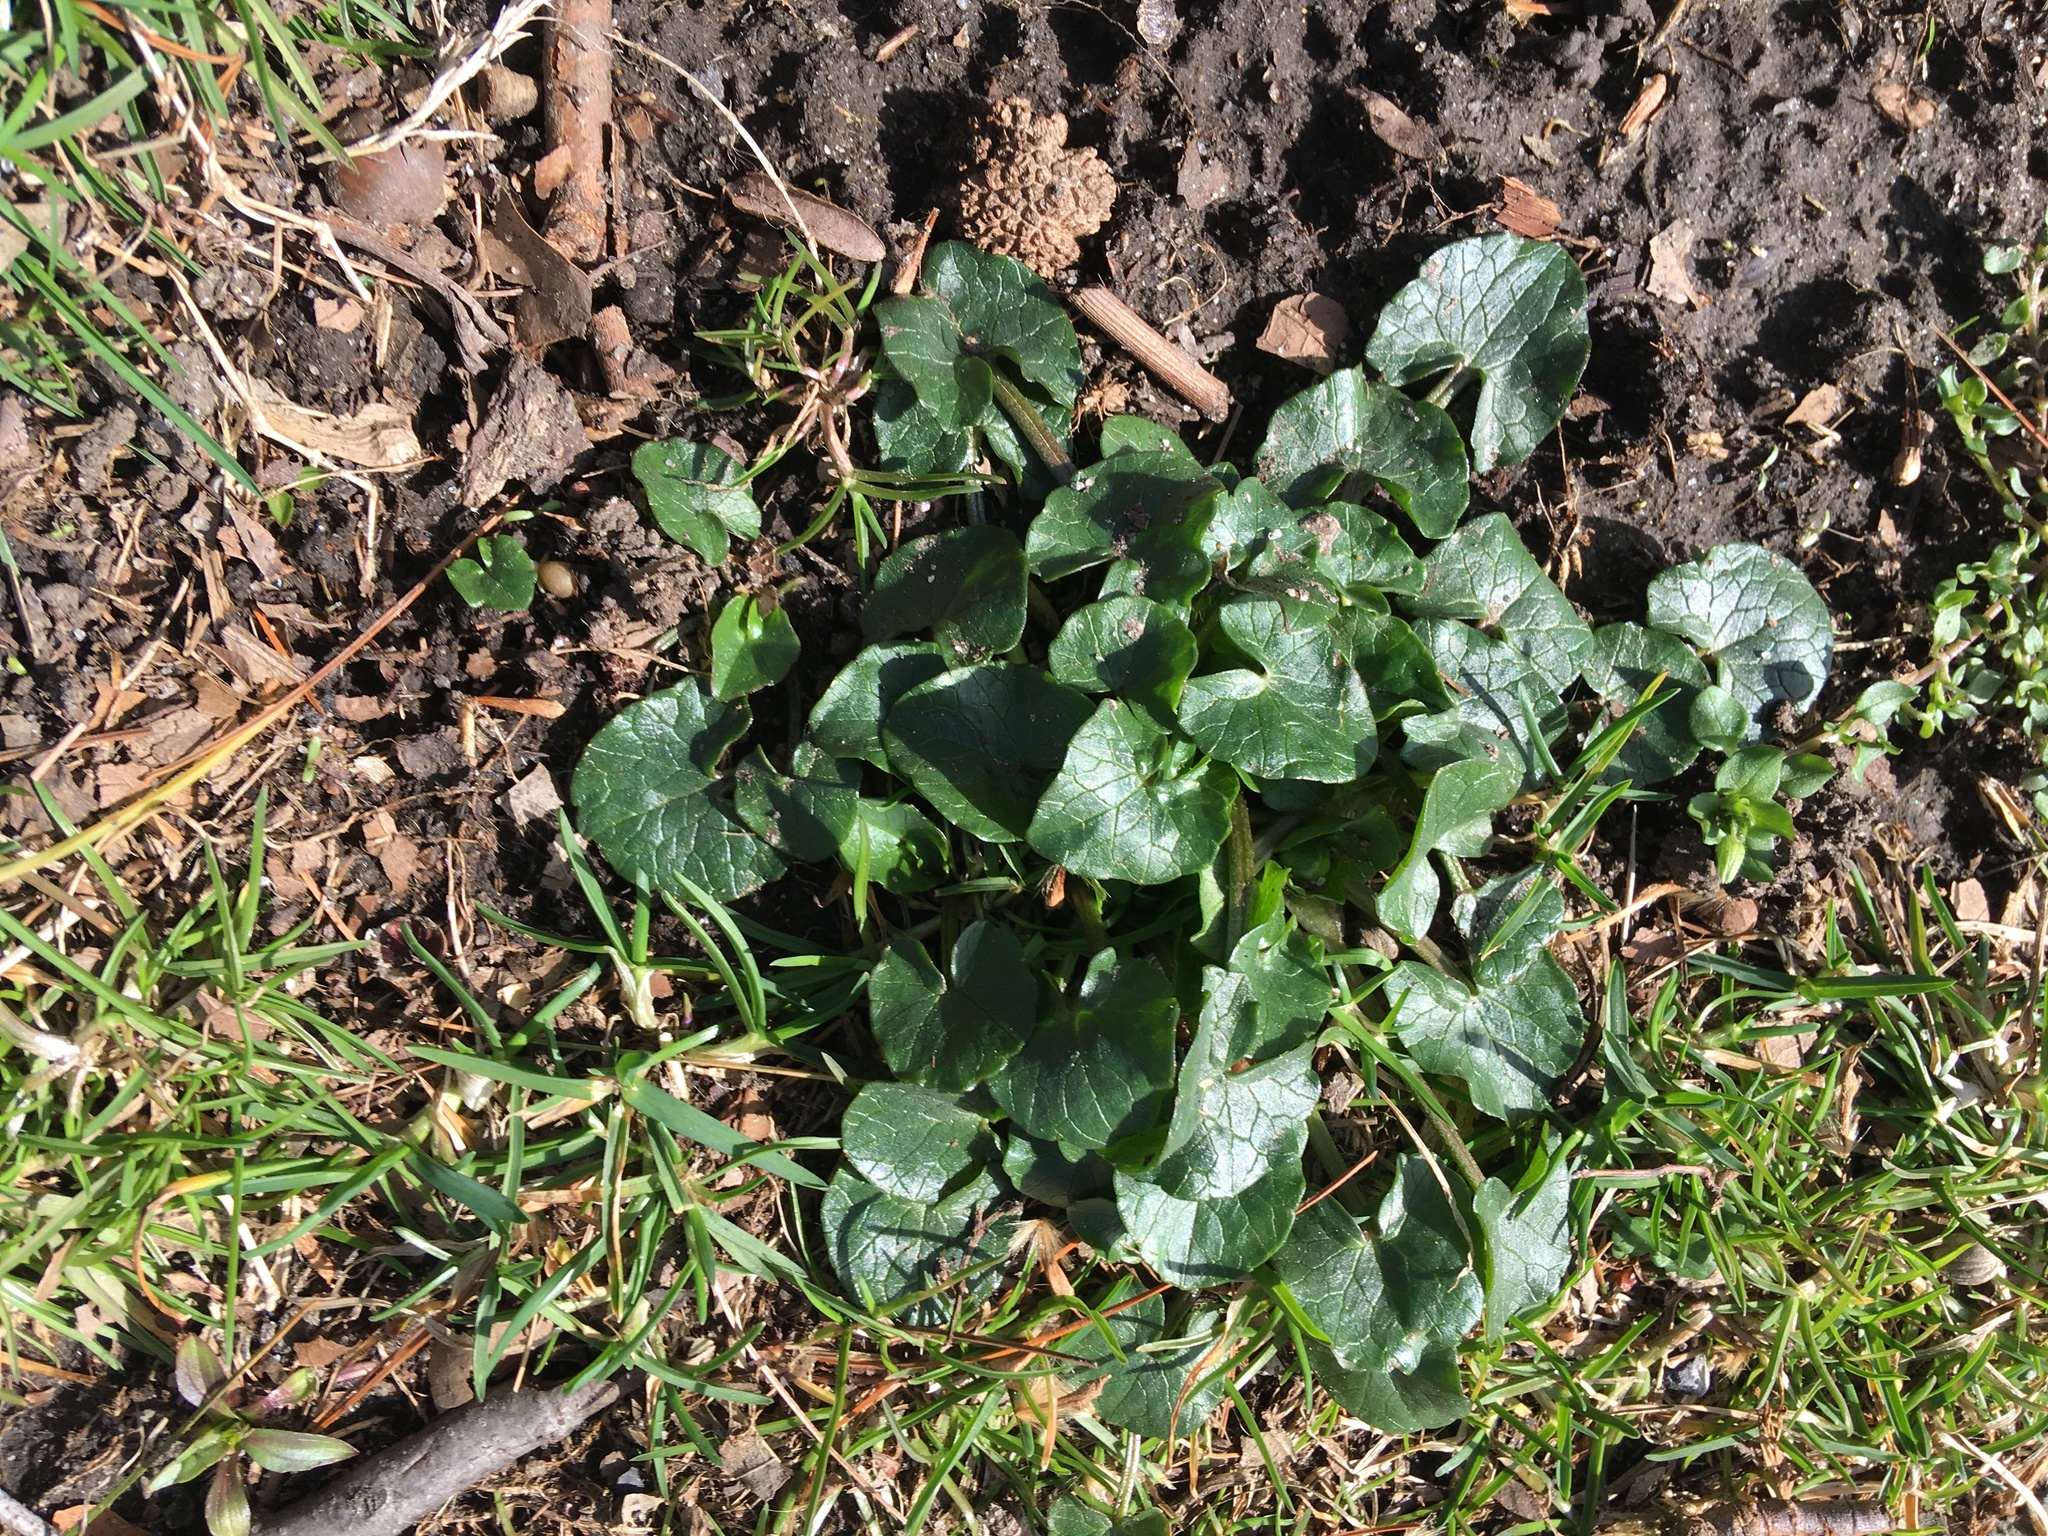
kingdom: Plantae
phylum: Tracheophyta
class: Magnoliopsida
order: Ranunculales
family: Ranunculaceae
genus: Ficaria
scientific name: Ficaria verna
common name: Lesser celandine
